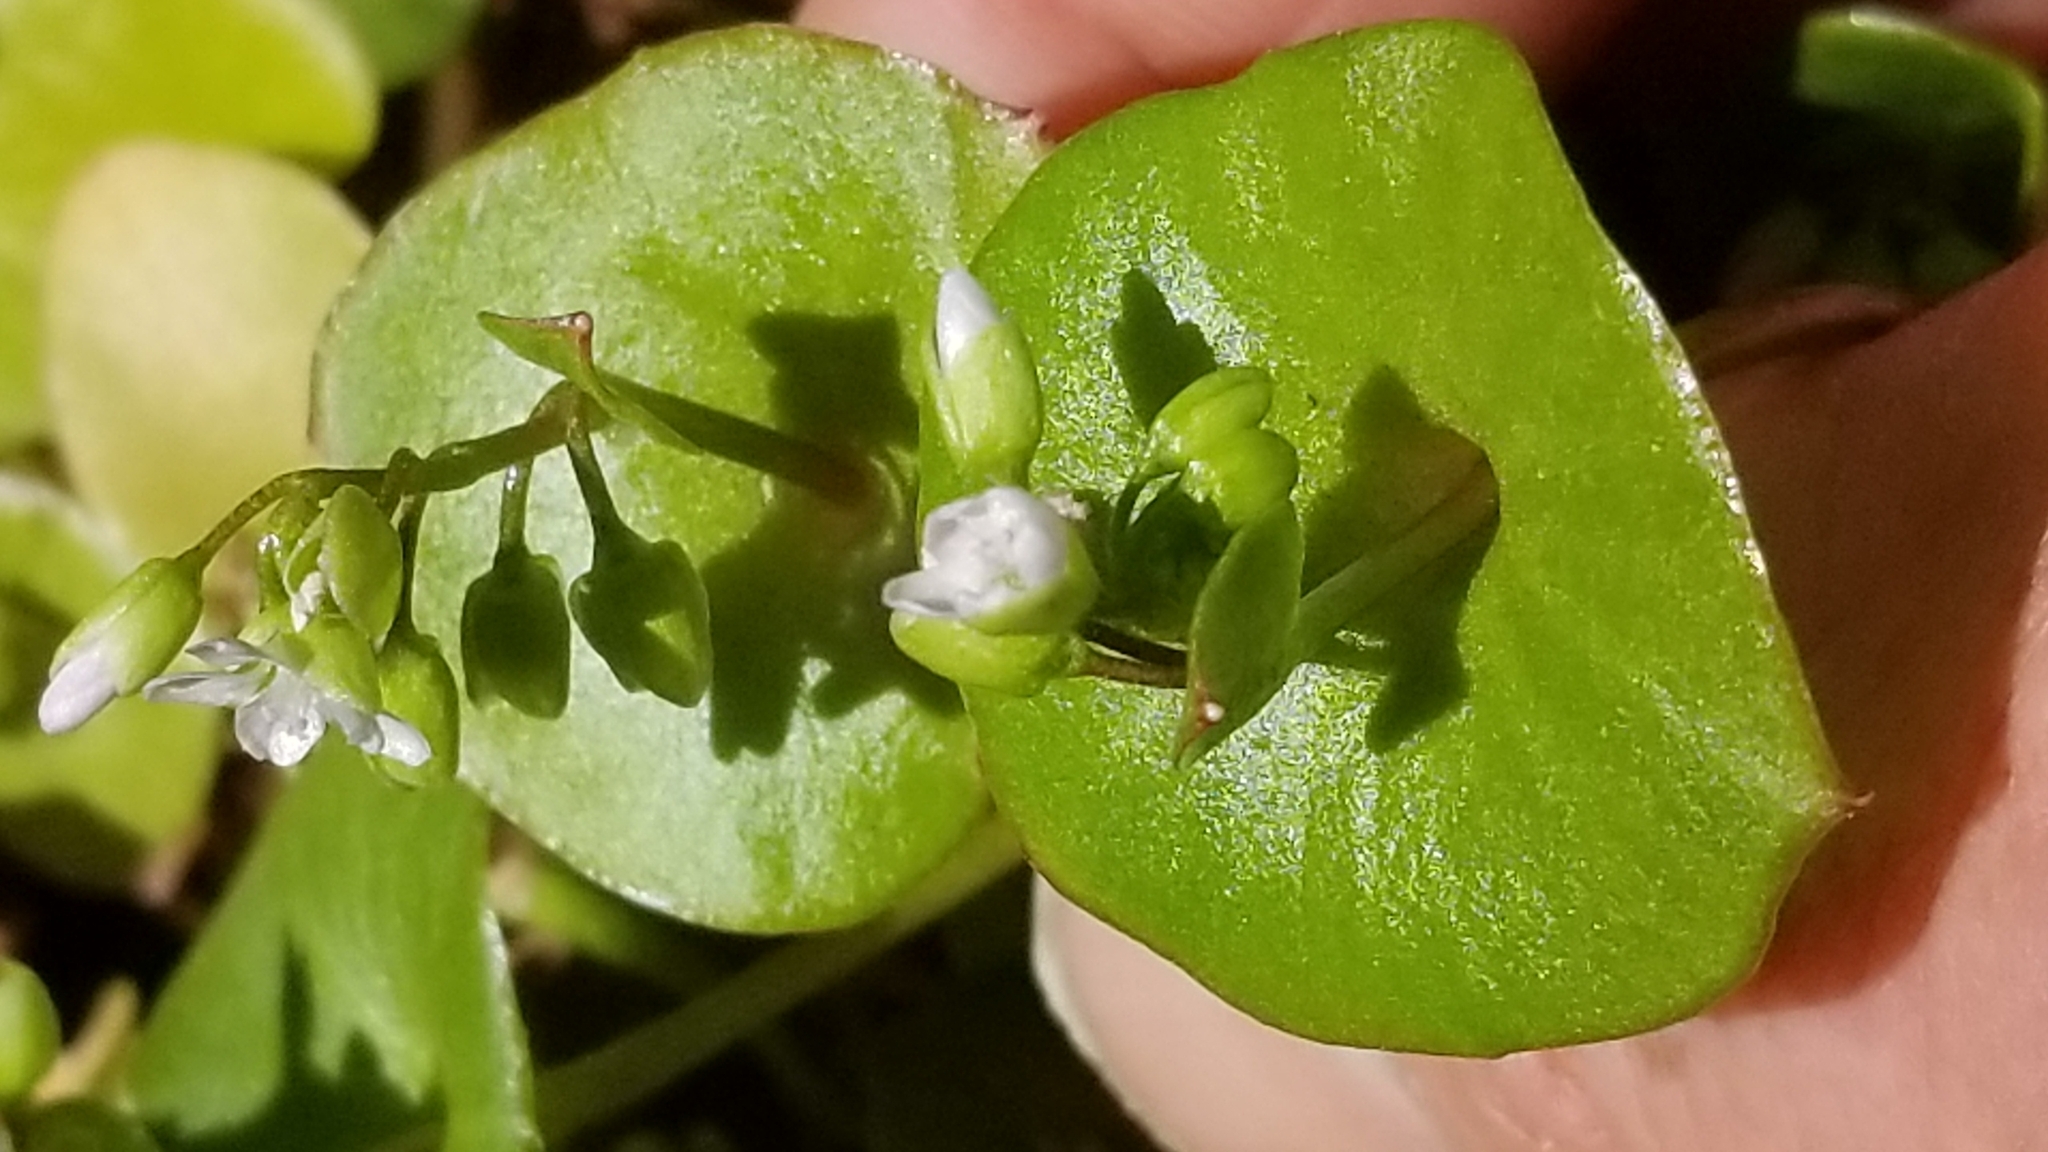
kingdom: Plantae
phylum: Tracheophyta
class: Magnoliopsida
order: Caryophyllales
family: Montiaceae
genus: Claytonia
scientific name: Claytonia perfoliata
